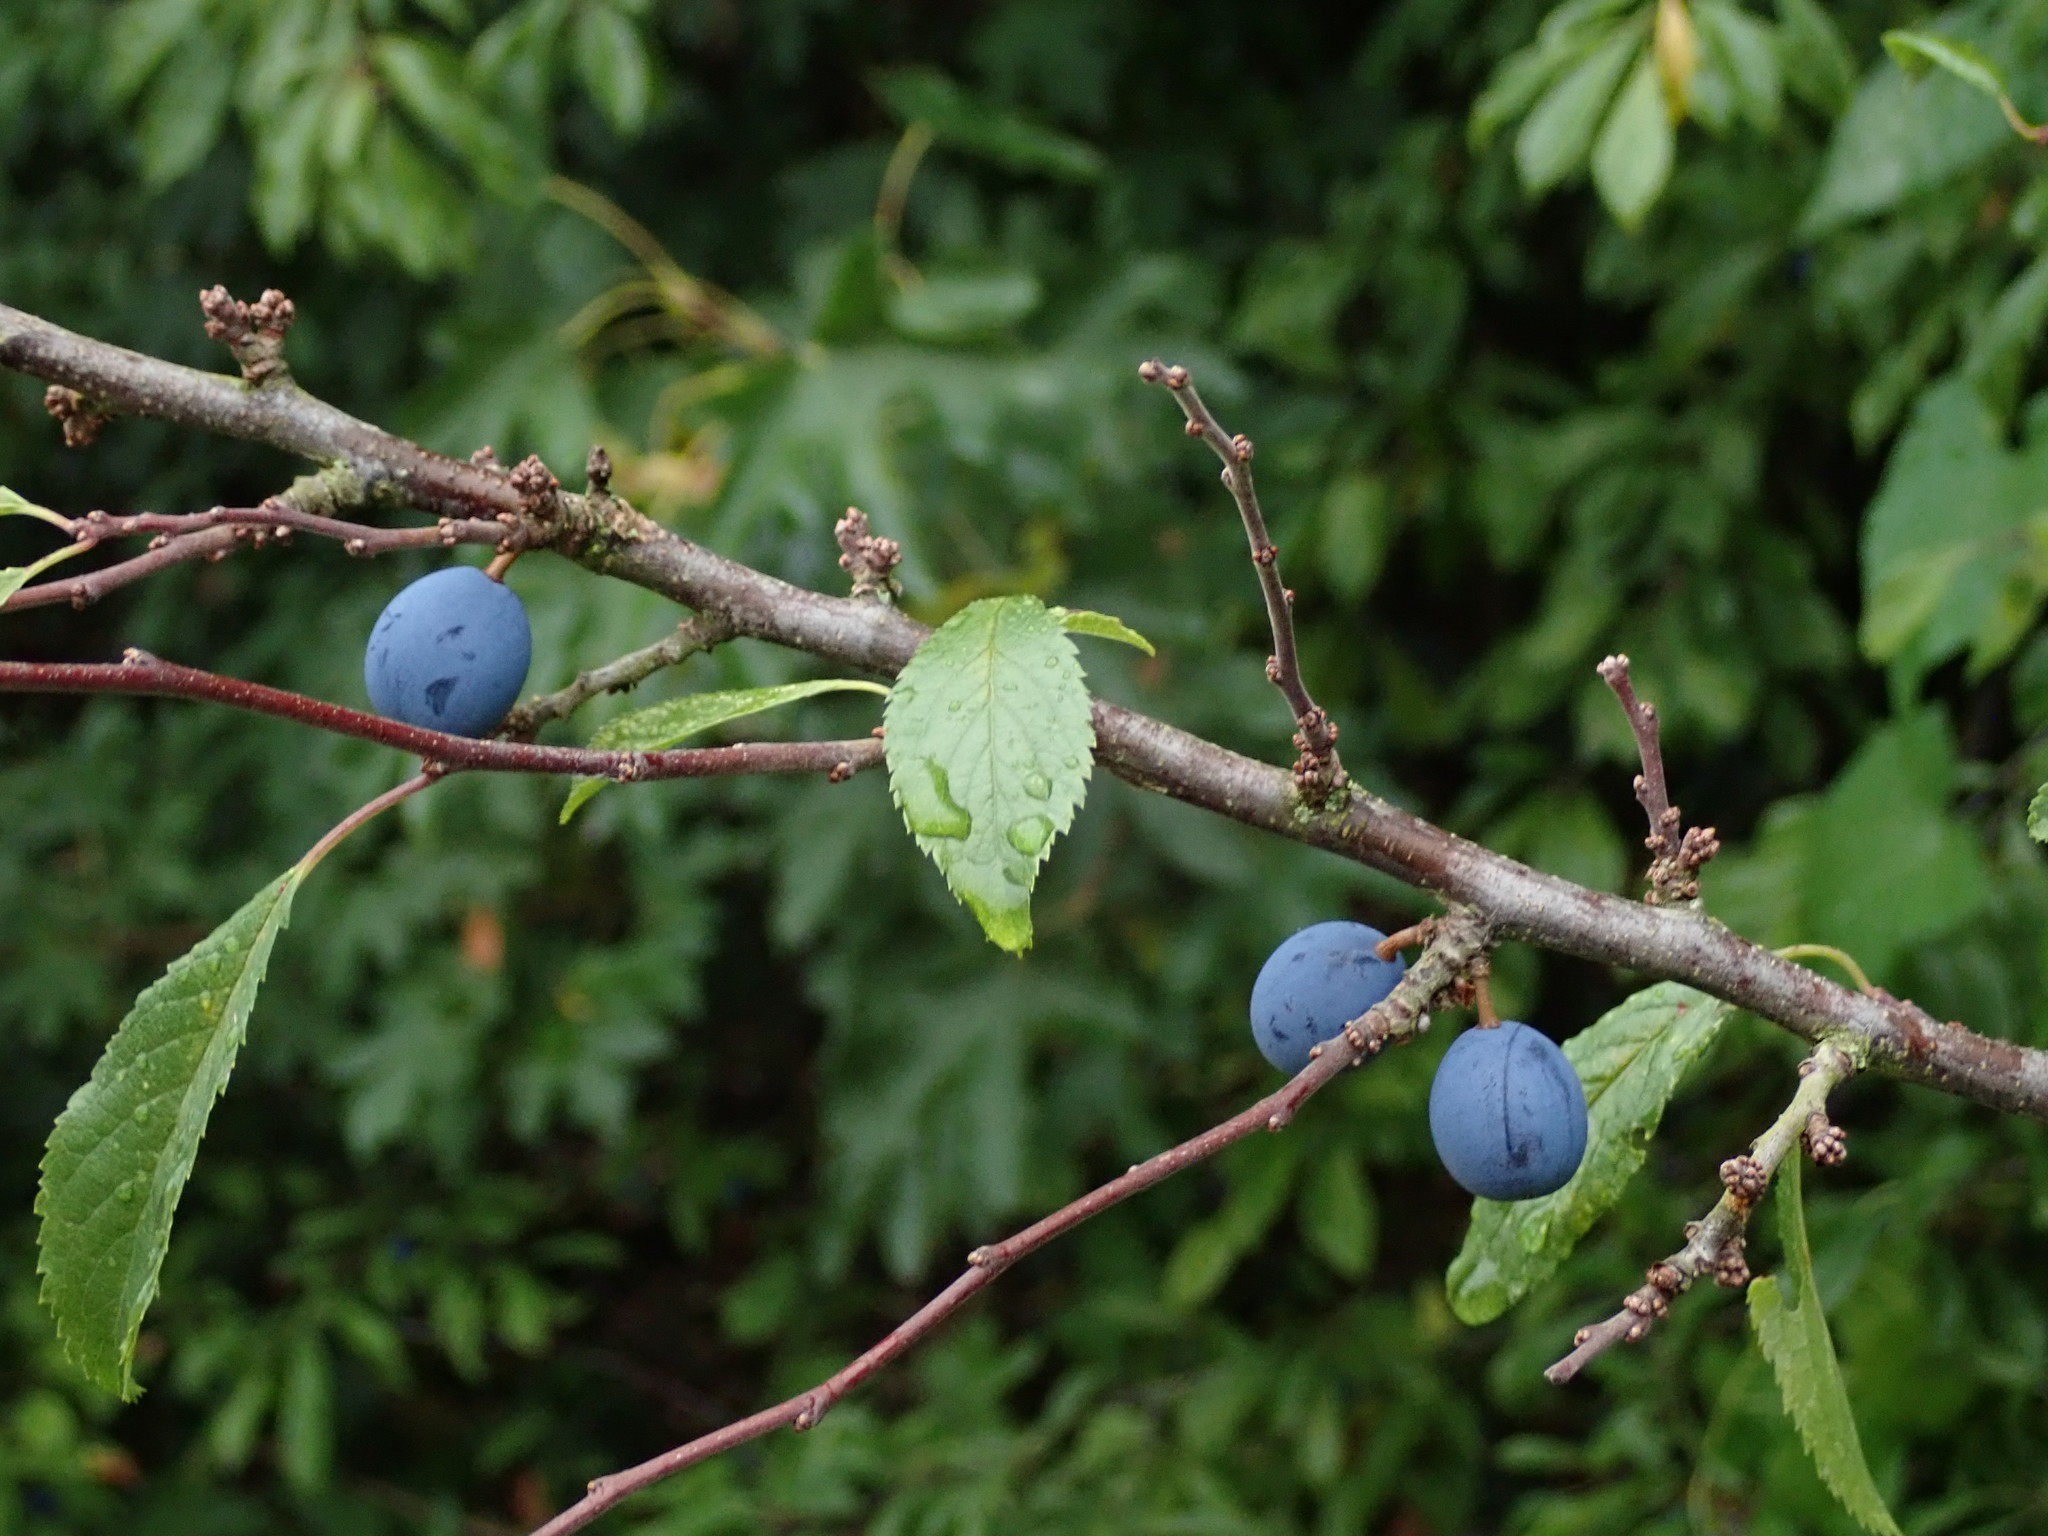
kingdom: Plantae
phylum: Tracheophyta
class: Magnoliopsida
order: Rosales
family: Rosaceae
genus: Prunus
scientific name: Prunus spinosa
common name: Blackthorn
